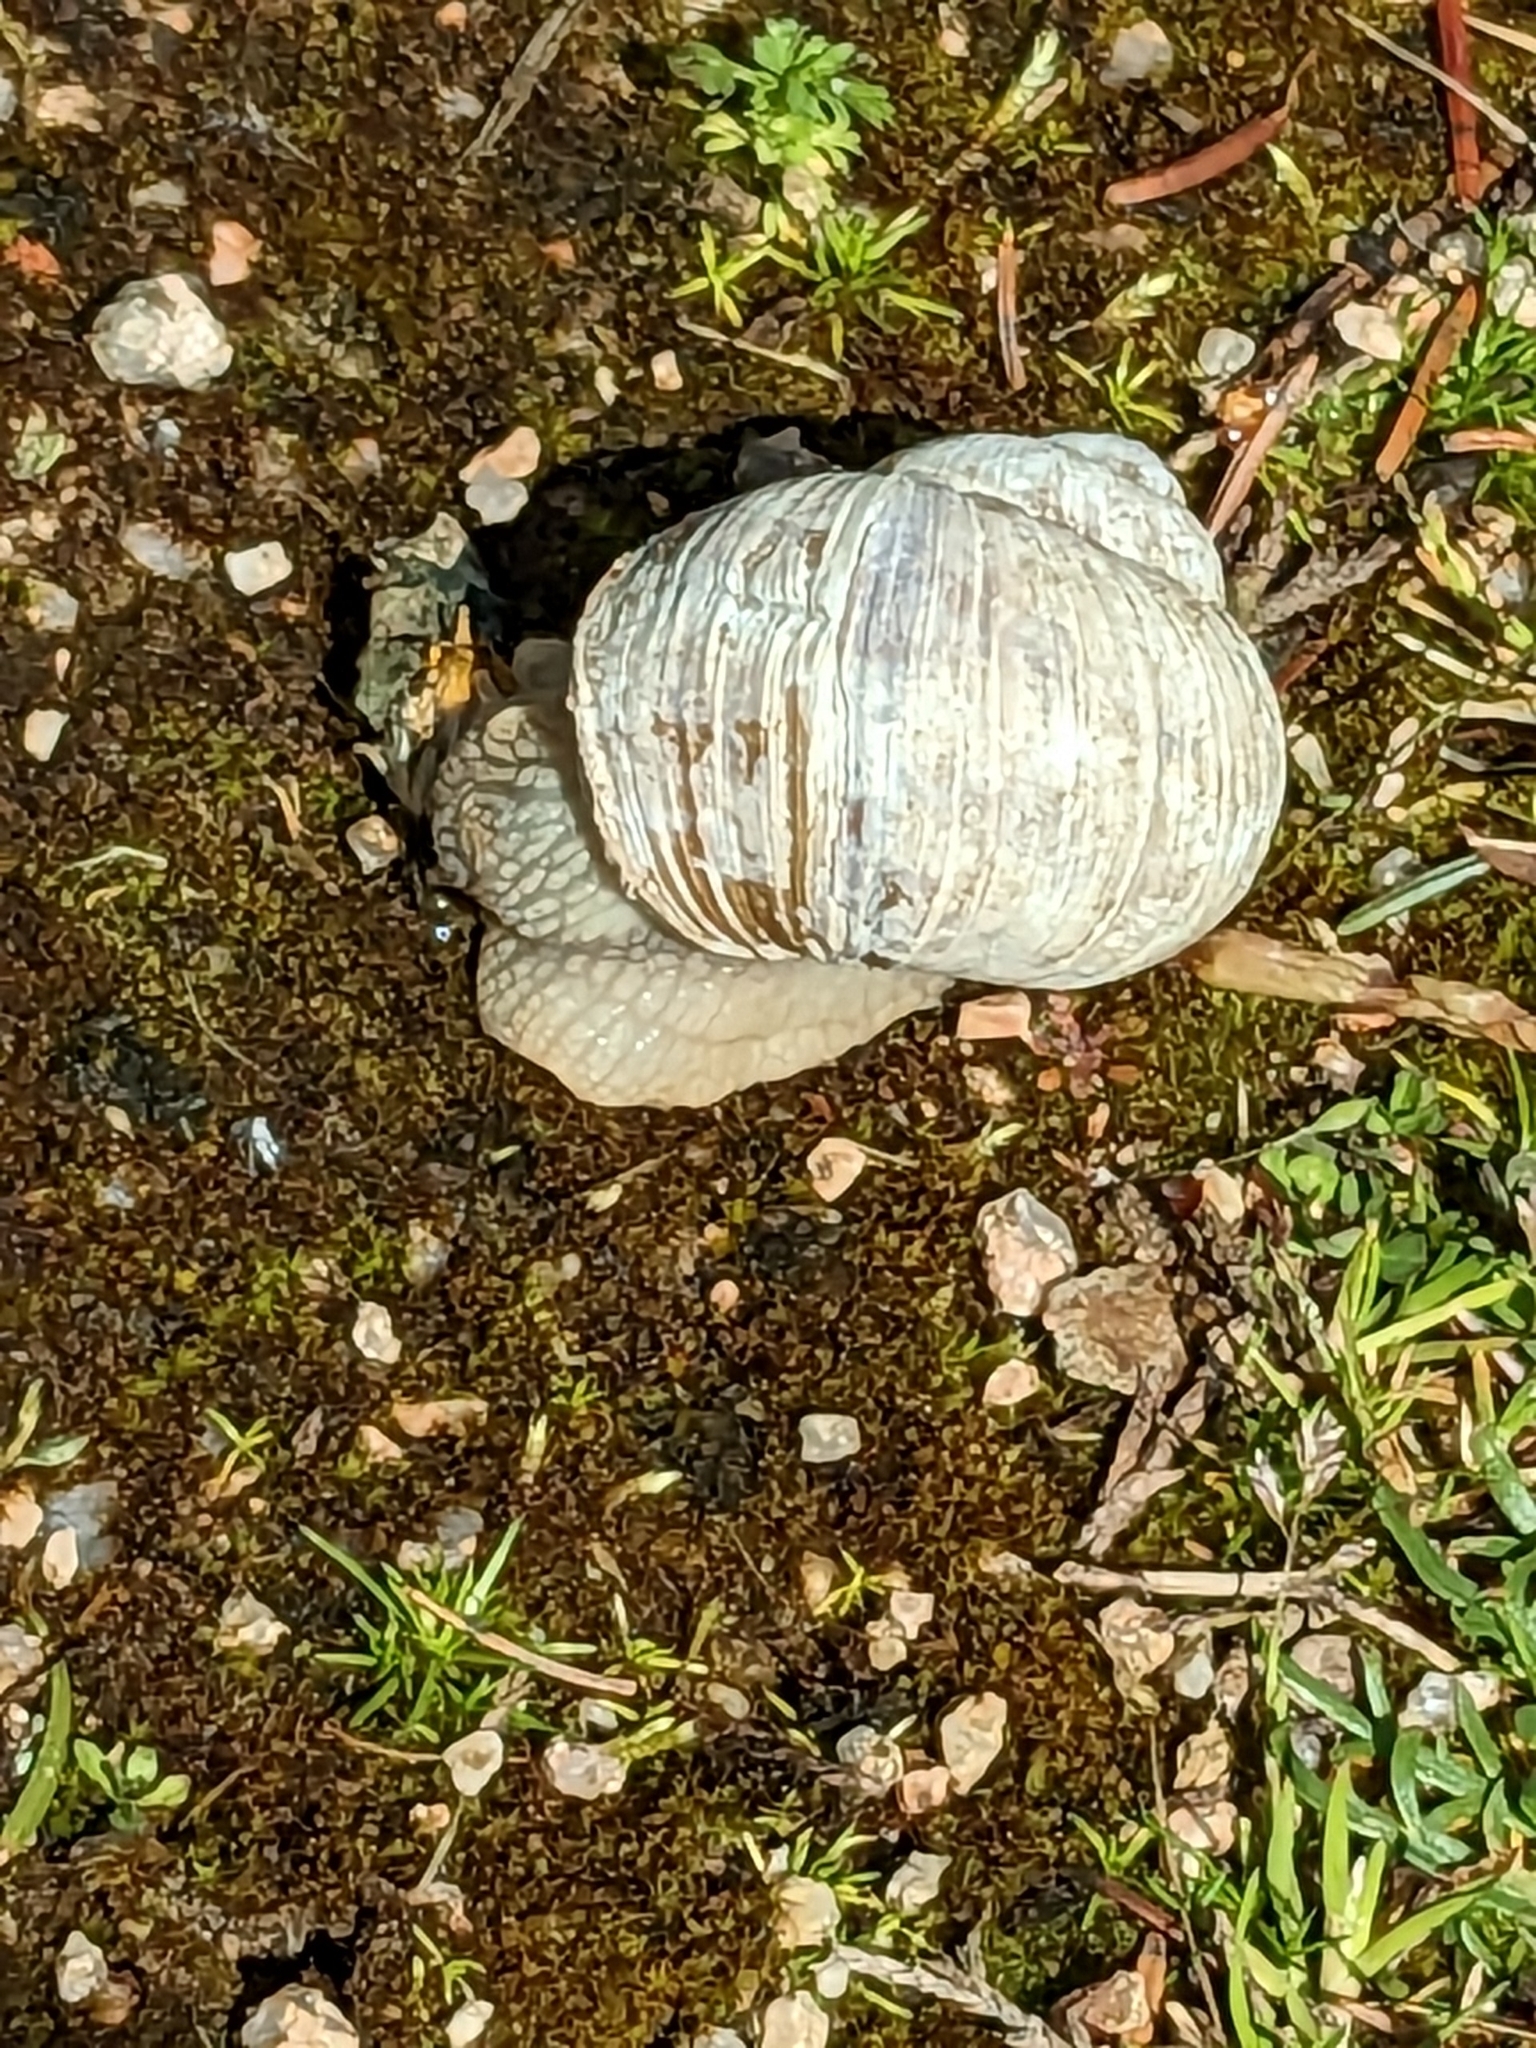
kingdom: Animalia
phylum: Mollusca
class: Gastropoda
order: Stylommatophora
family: Helicidae
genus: Helix
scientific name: Helix pomatia
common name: Roman snail
